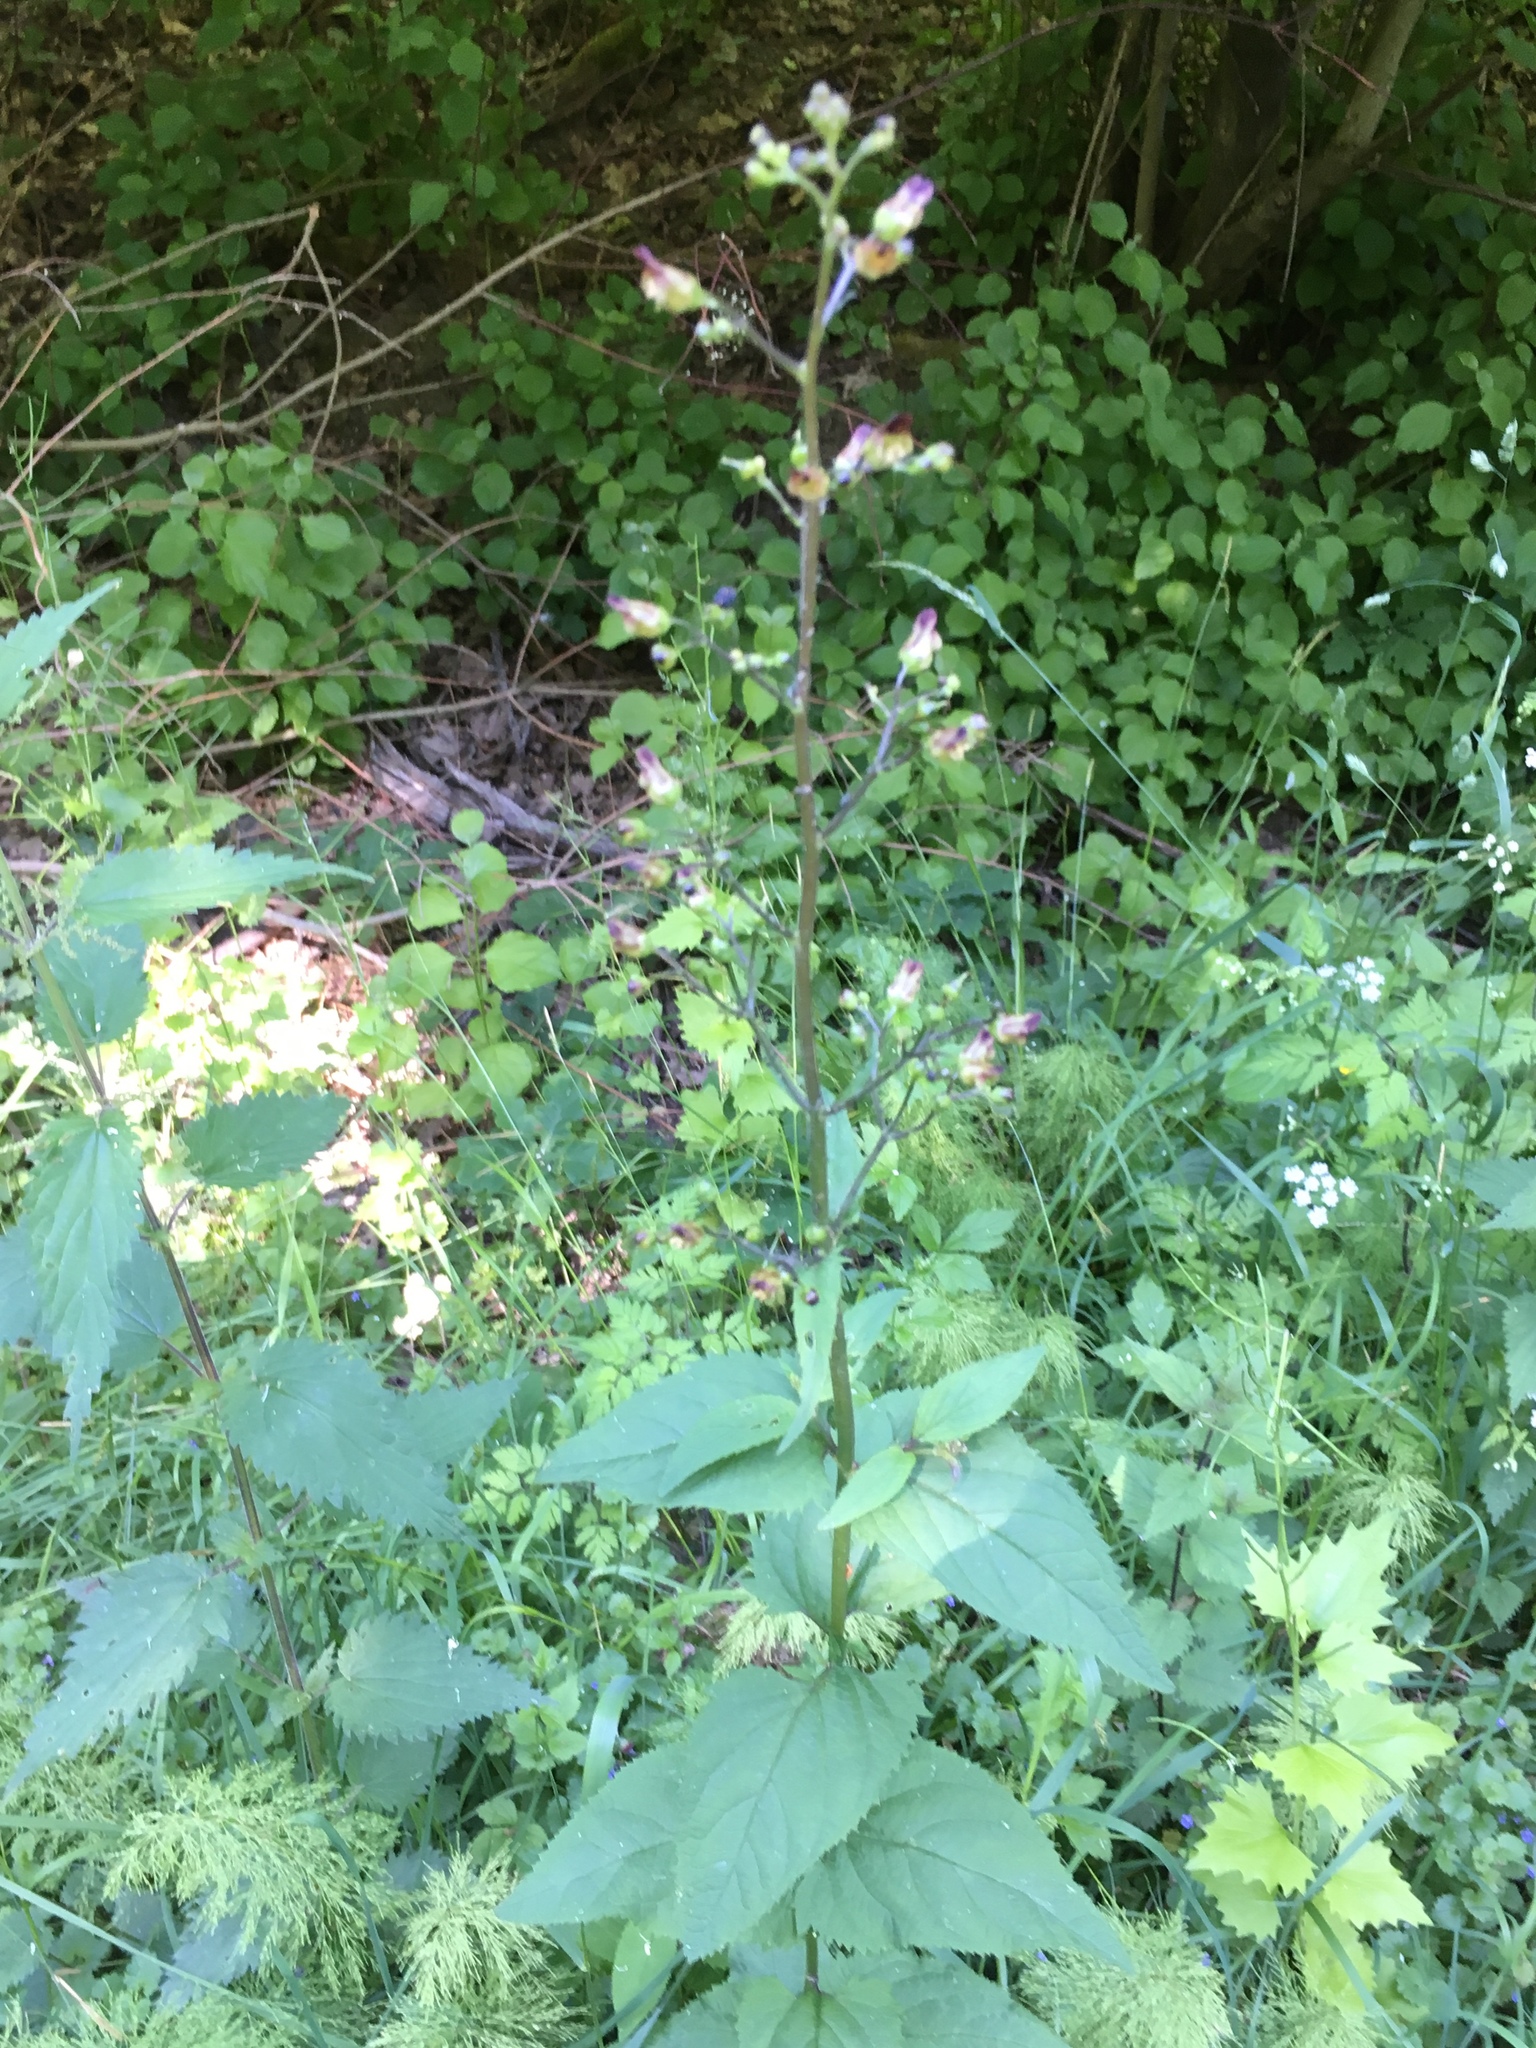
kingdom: Plantae
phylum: Tracheophyta
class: Magnoliopsida
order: Lamiales
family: Scrophulariaceae
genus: Scrophularia
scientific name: Scrophularia nodosa
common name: Common figwort
